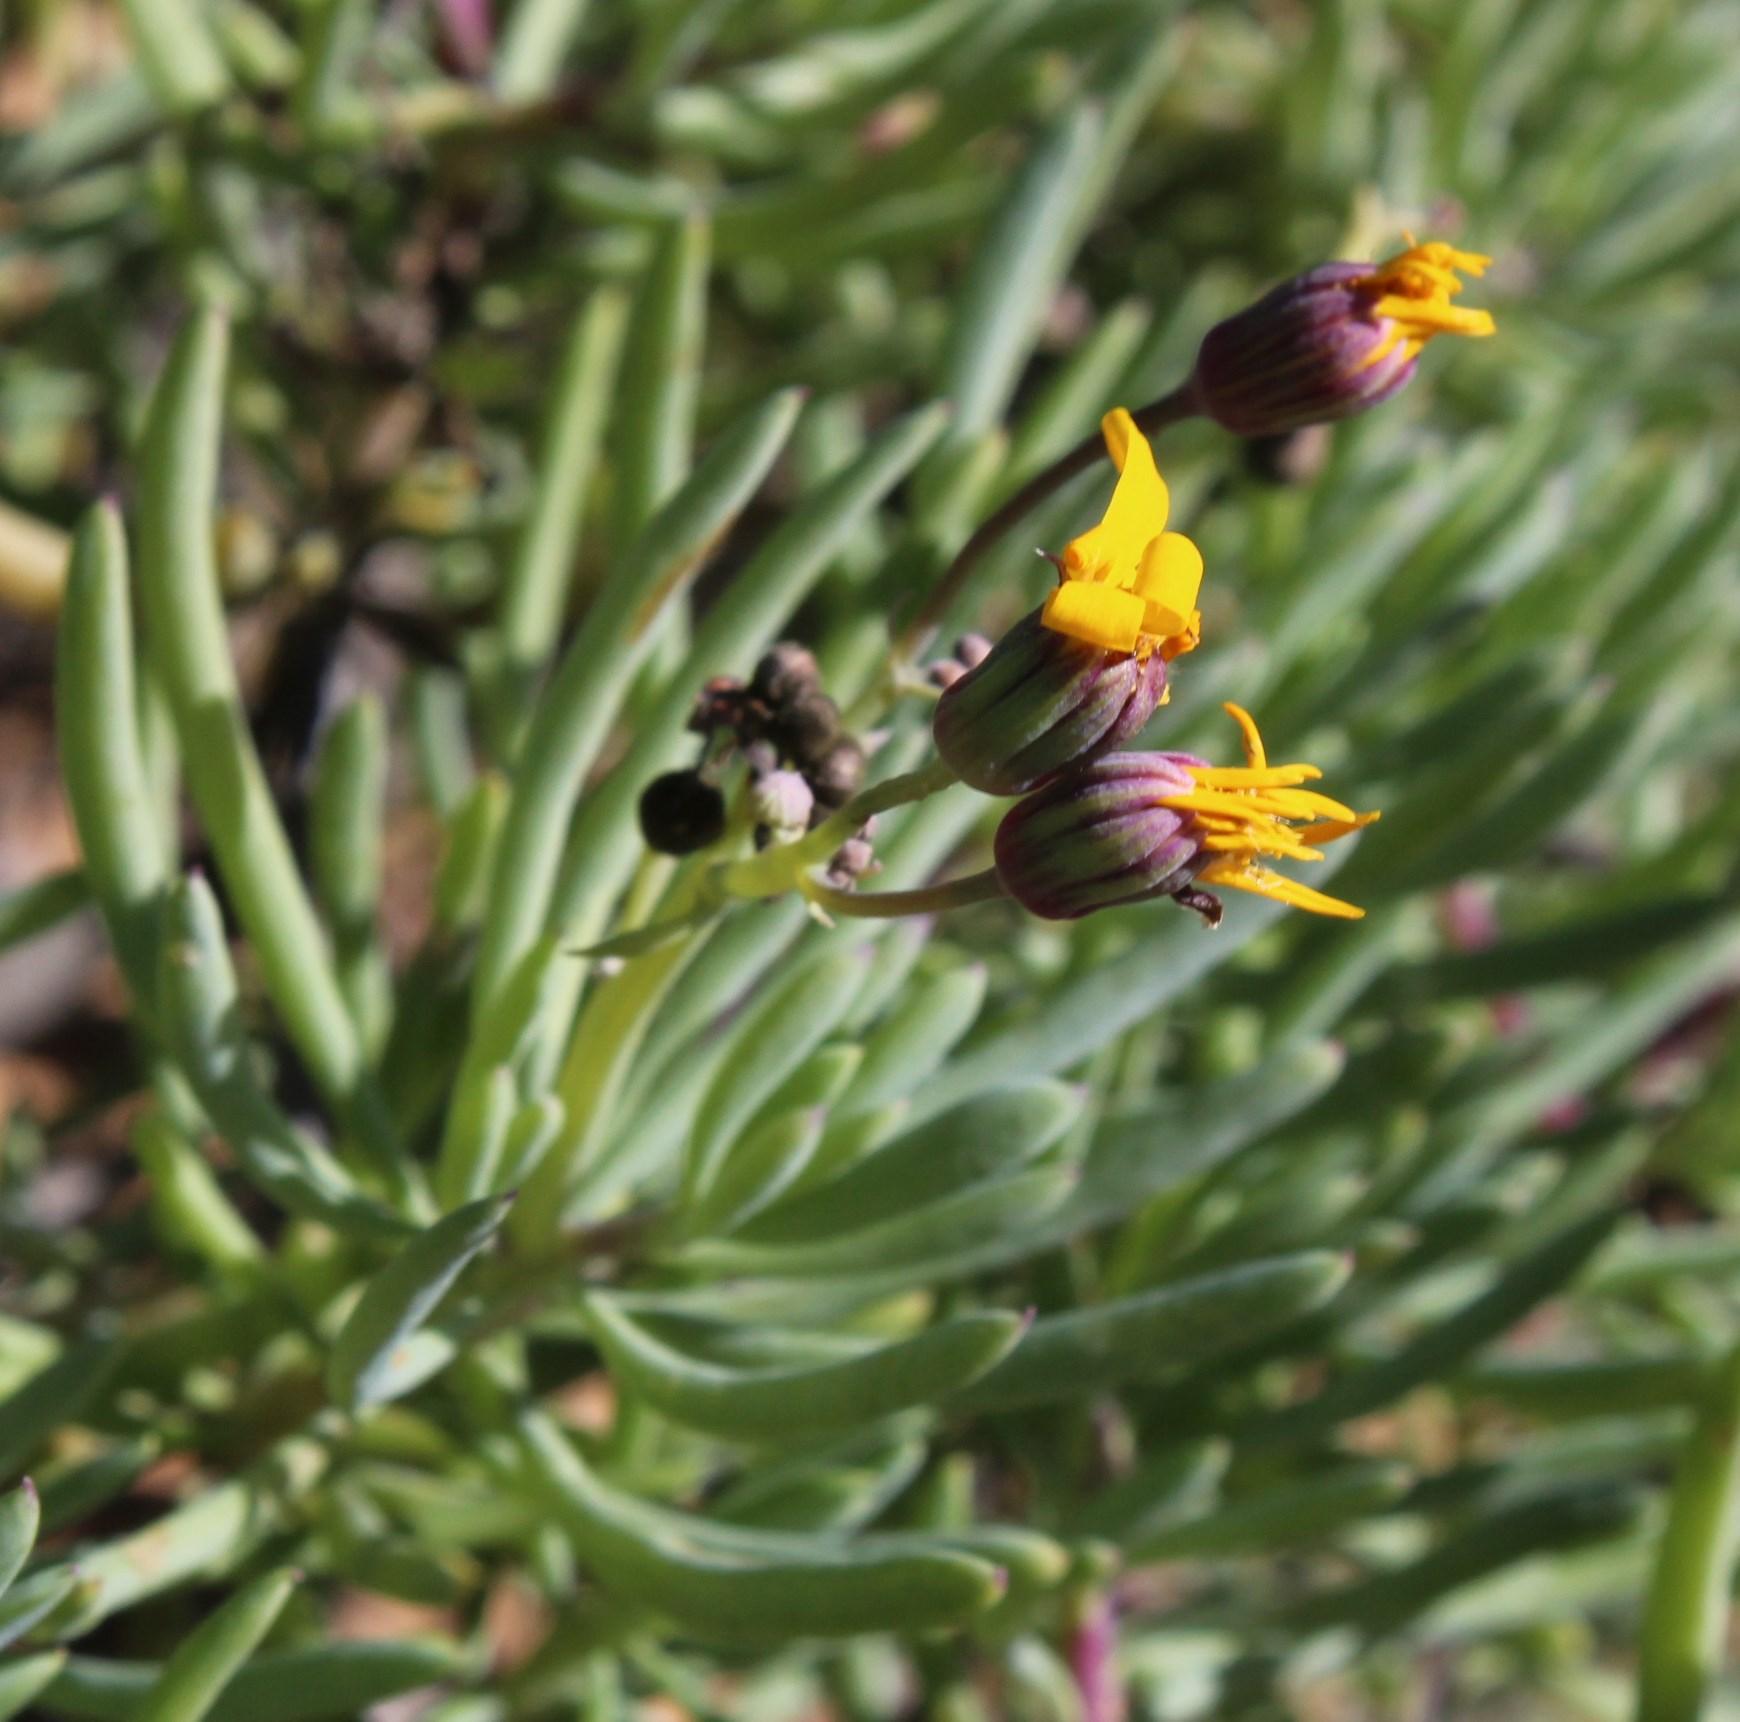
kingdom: Plantae
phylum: Tracheophyta
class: Magnoliopsida
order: Asterales
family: Asteraceae
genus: Crassothonna
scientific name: Crassothonna cylindrica
